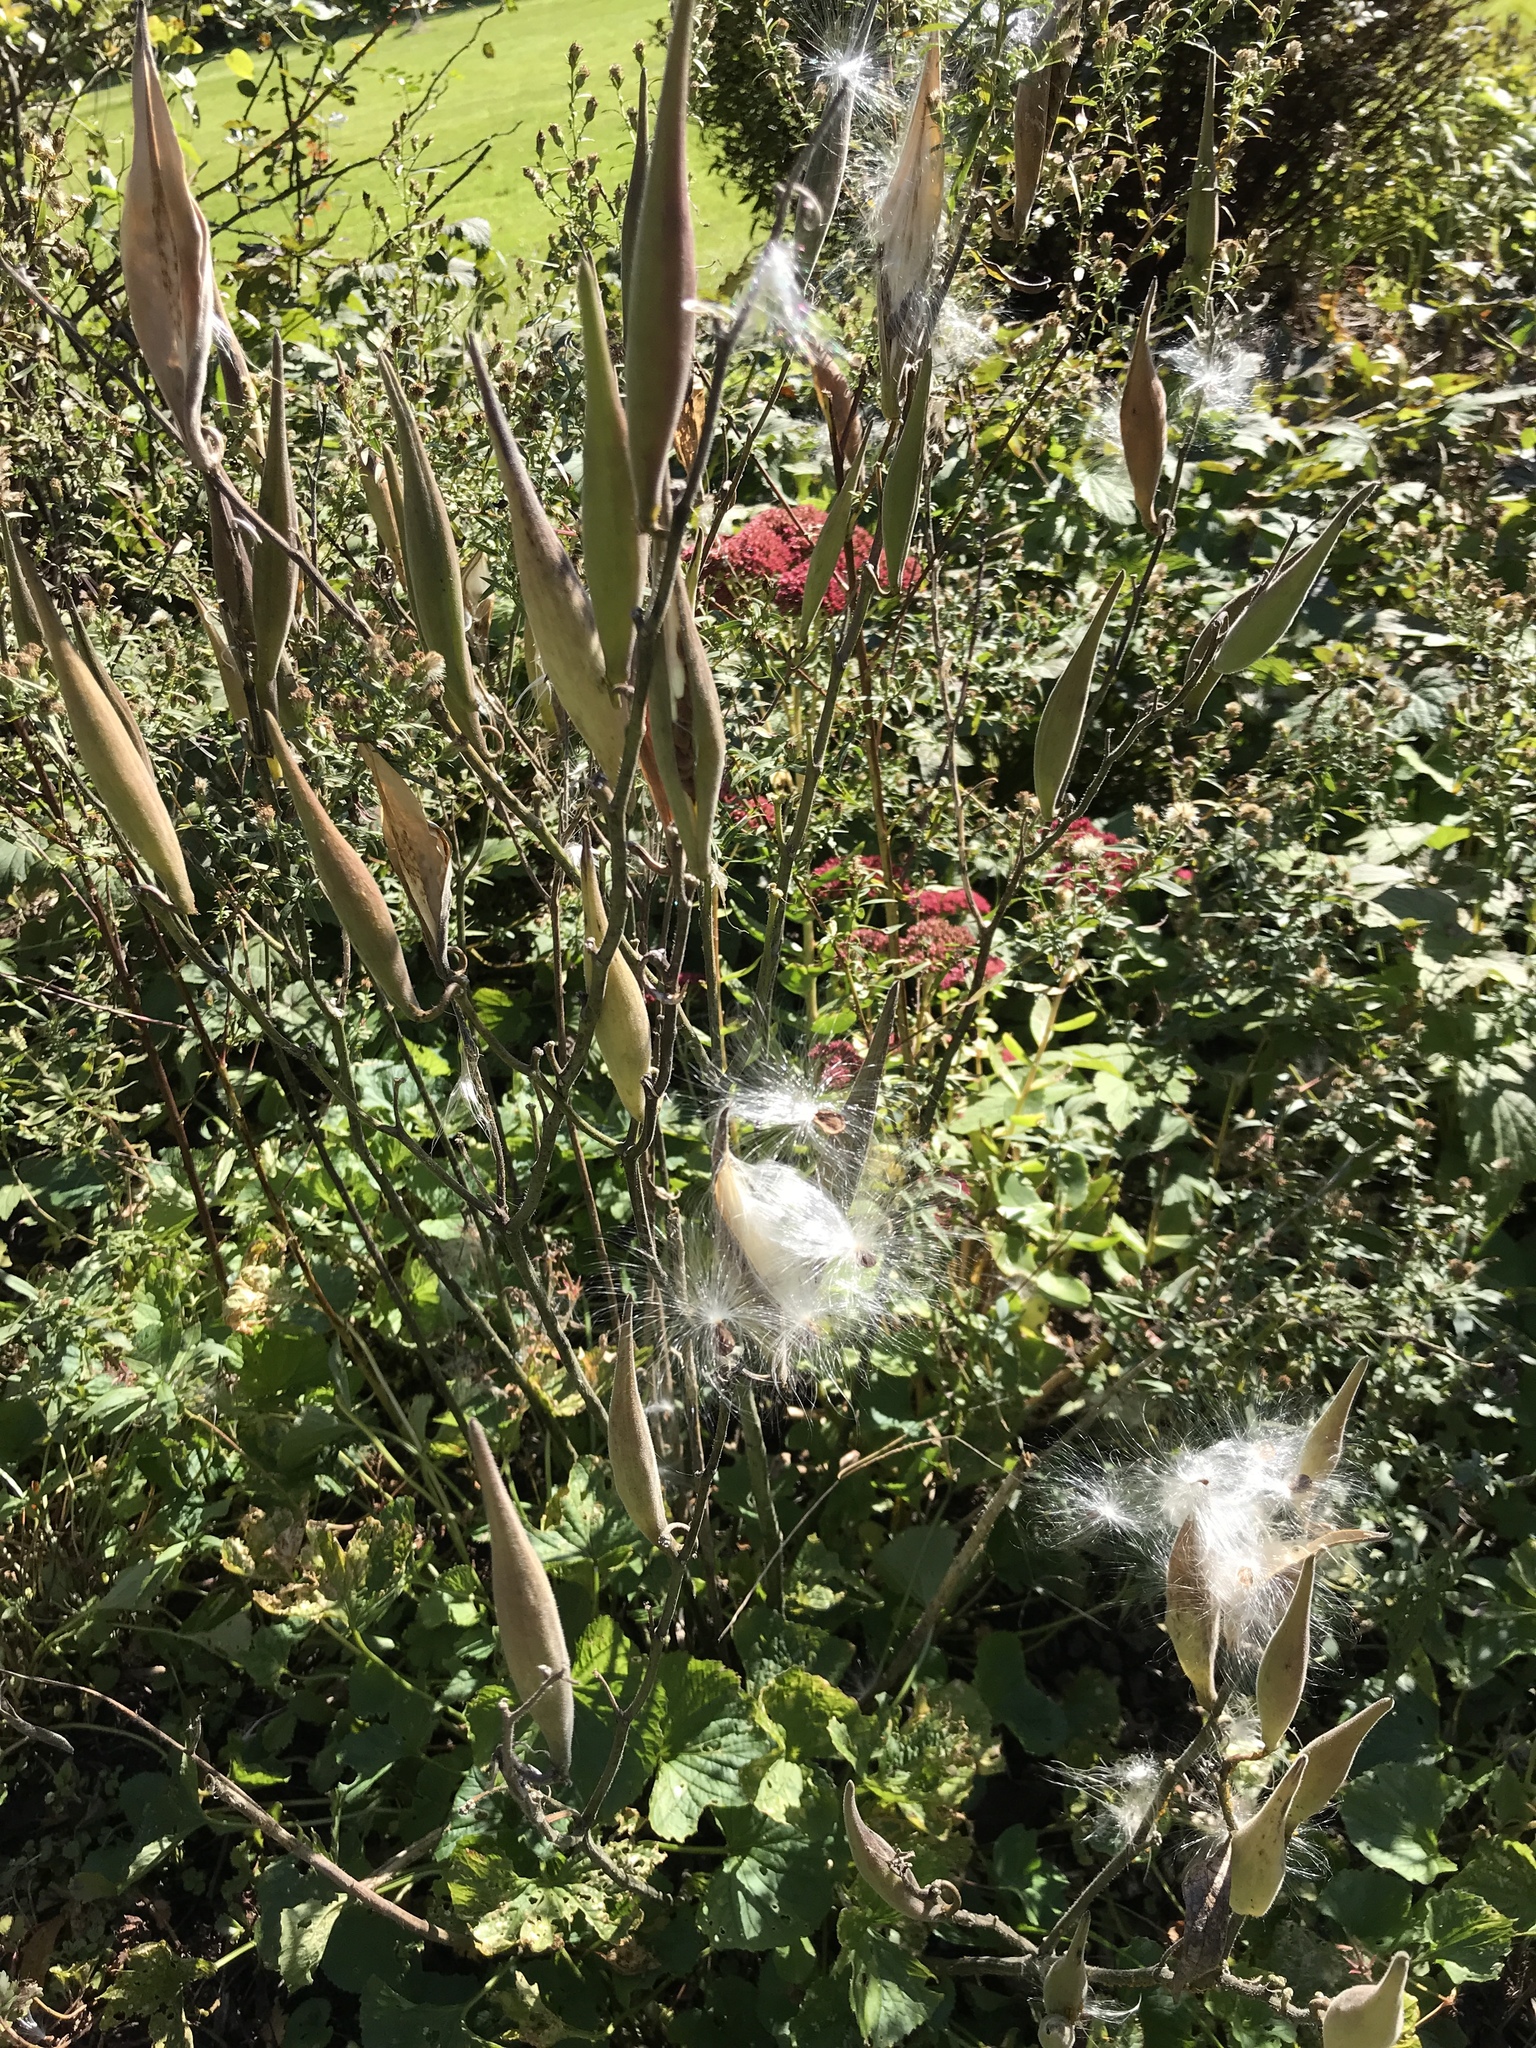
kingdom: Plantae
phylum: Tracheophyta
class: Magnoliopsida
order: Gentianales
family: Apocynaceae
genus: Asclepias
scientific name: Asclepias tuberosa
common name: Butterfly milkweed
